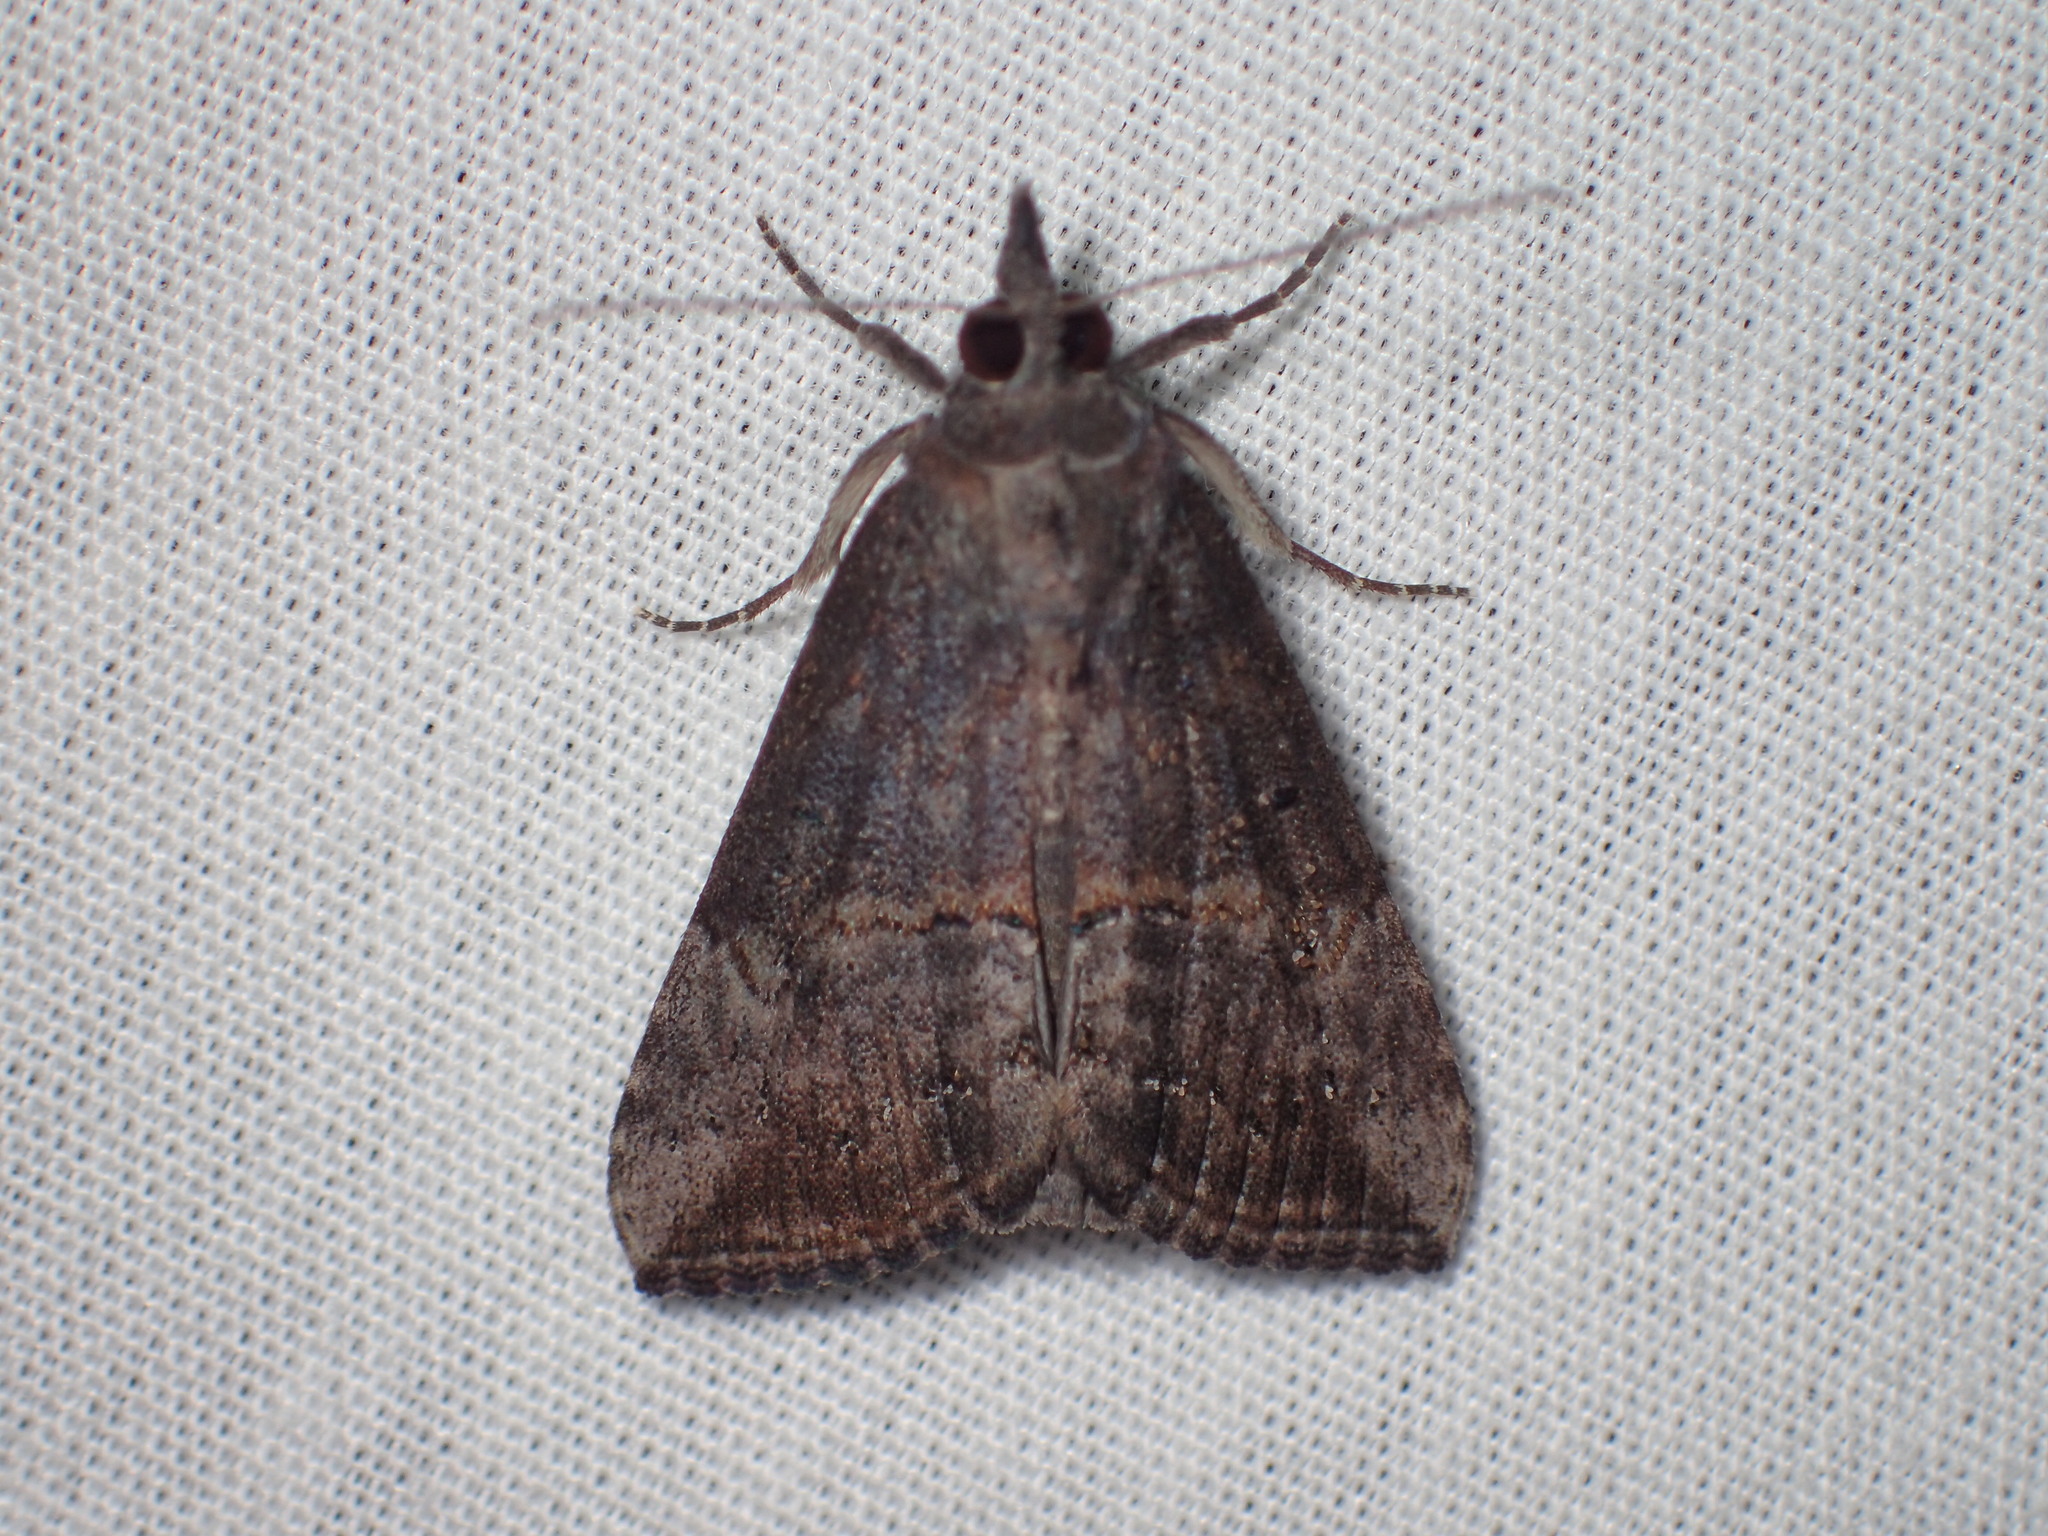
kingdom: Animalia
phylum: Arthropoda
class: Insecta
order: Lepidoptera
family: Erebidae
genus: Hypena
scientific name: Hypena scabra
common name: Green cloverworm
